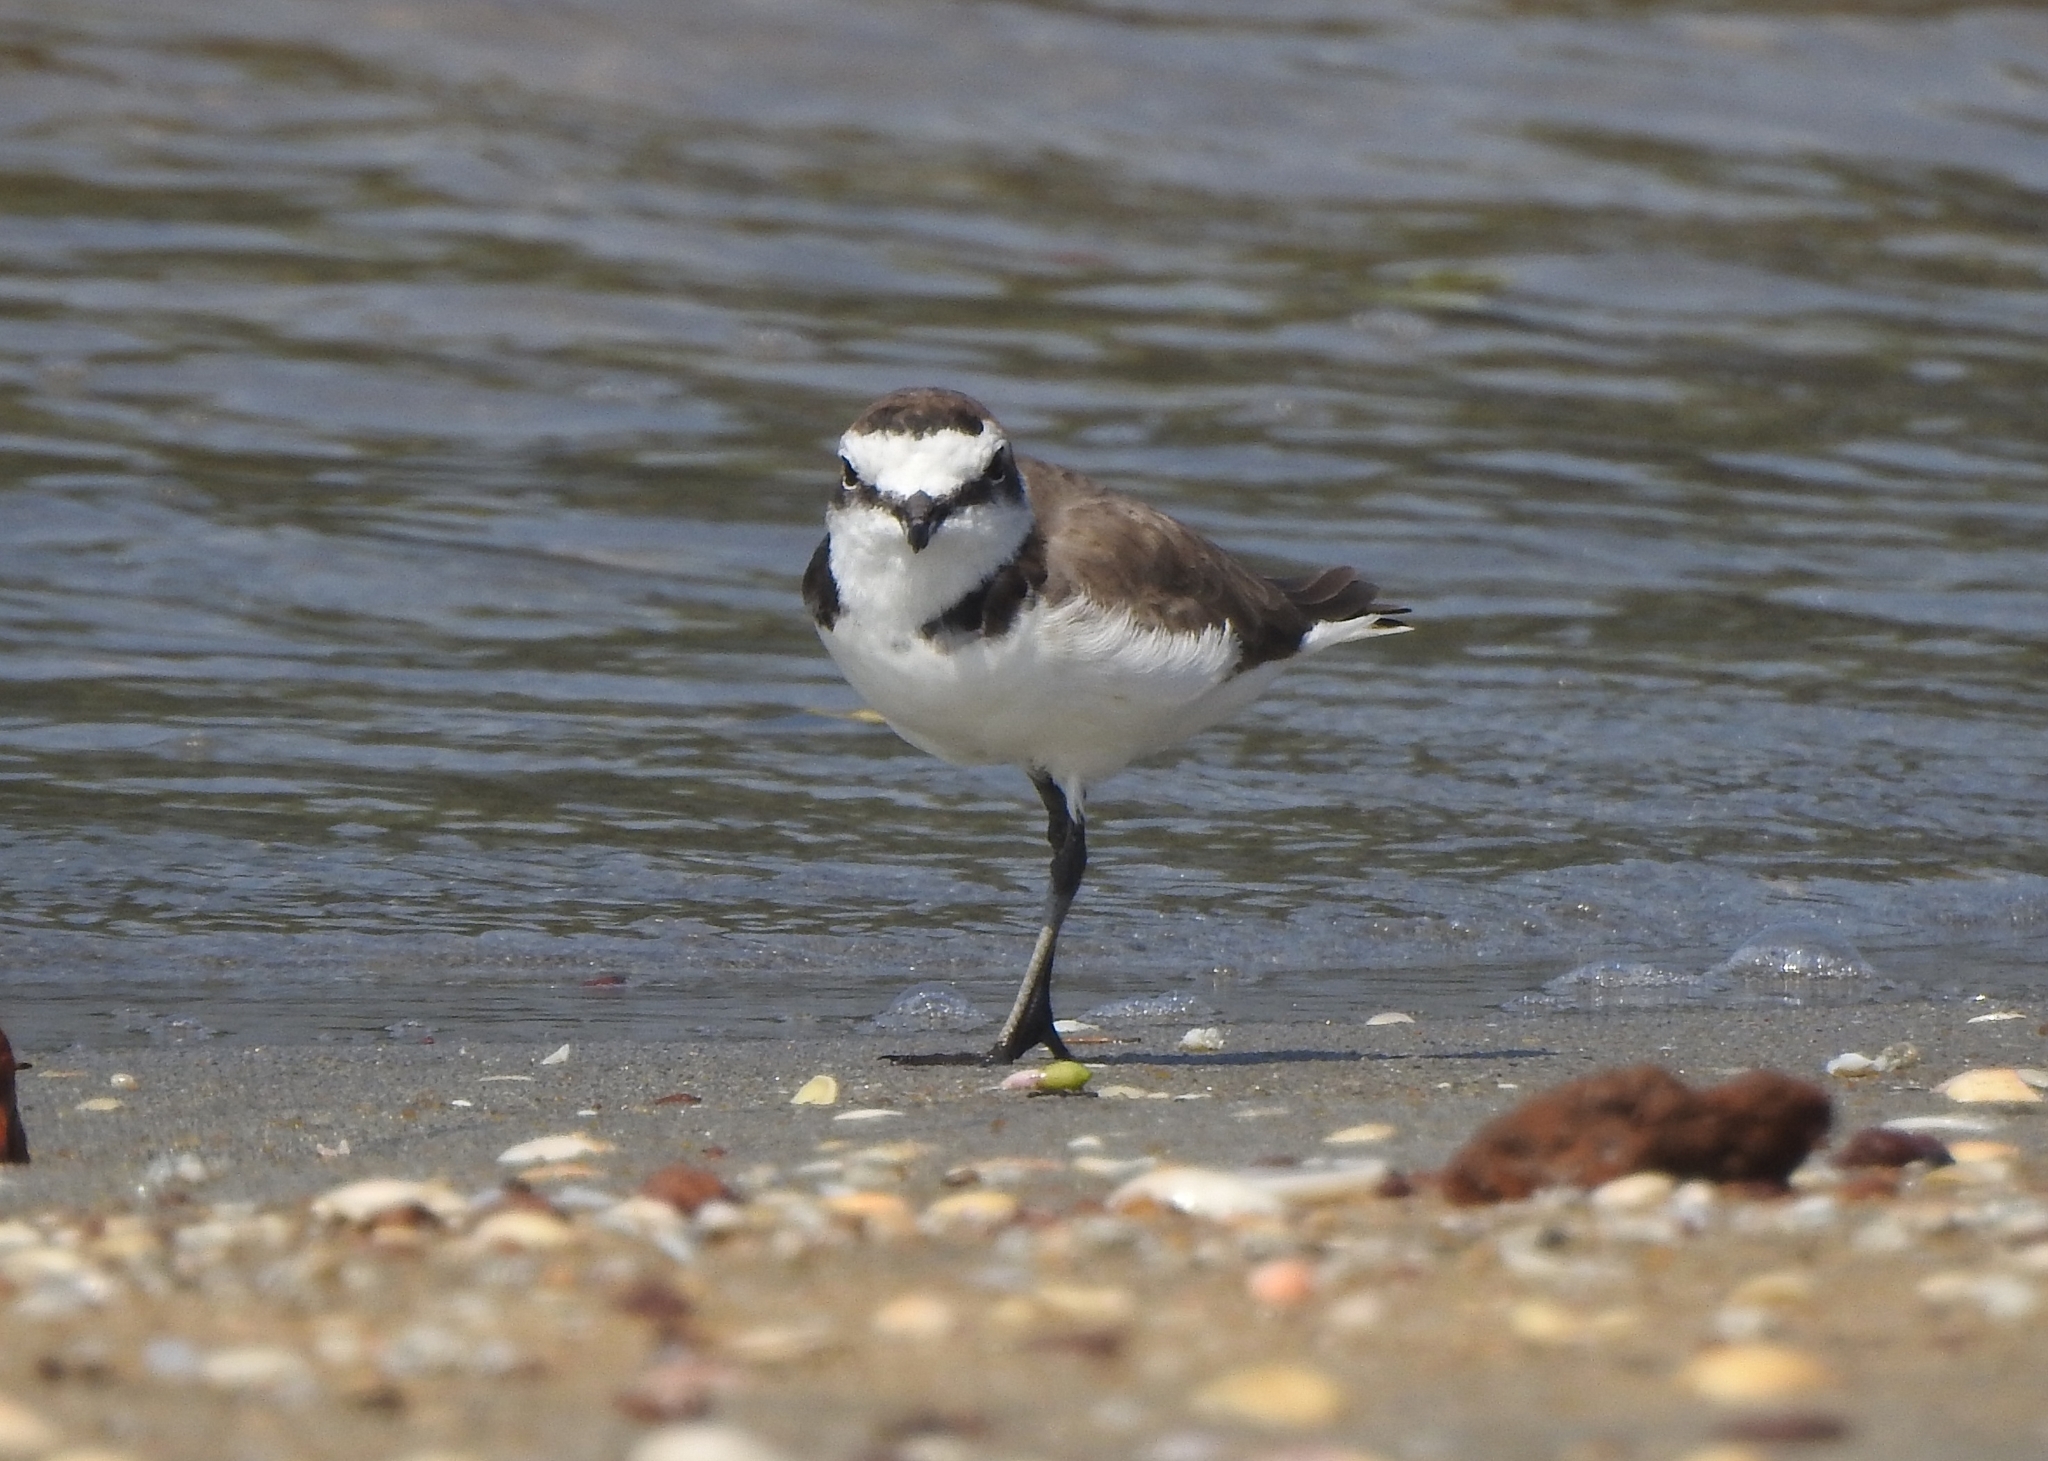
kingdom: Animalia
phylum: Chordata
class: Aves
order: Charadriiformes
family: Charadriidae
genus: Charadrius
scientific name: Charadrius alexandrinus
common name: Kentish plover
